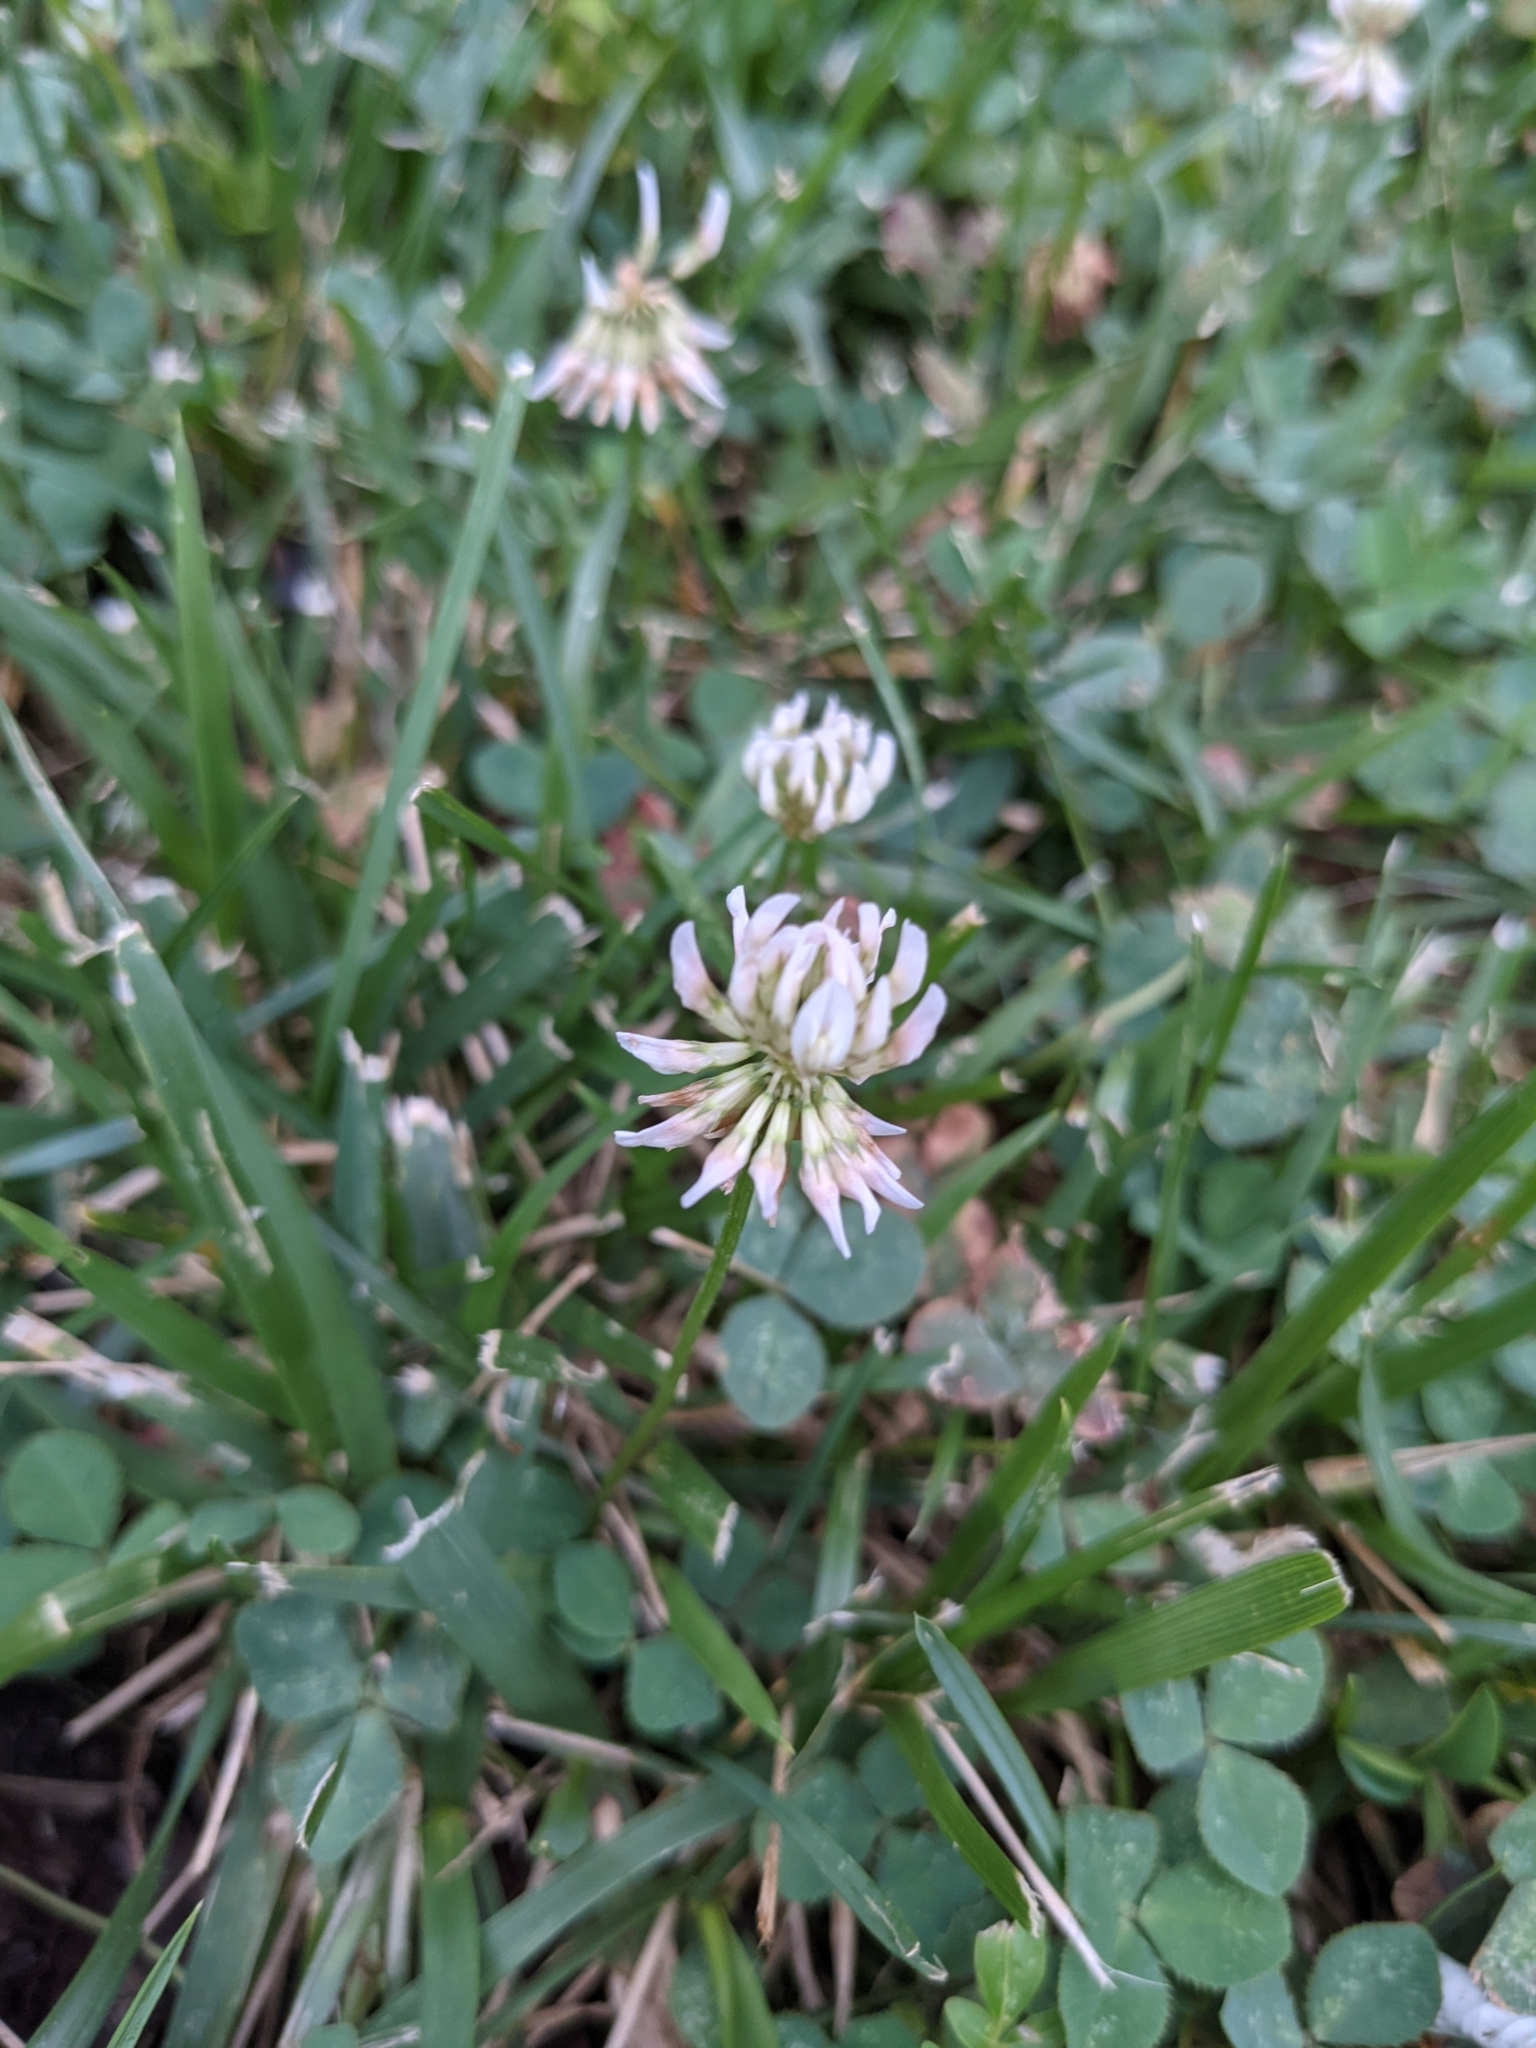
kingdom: Plantae
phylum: Tracheophyta
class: Magnoliopsida
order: Fabales
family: Fabaceae
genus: Trifolium
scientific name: Trifolium repens
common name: White clover
